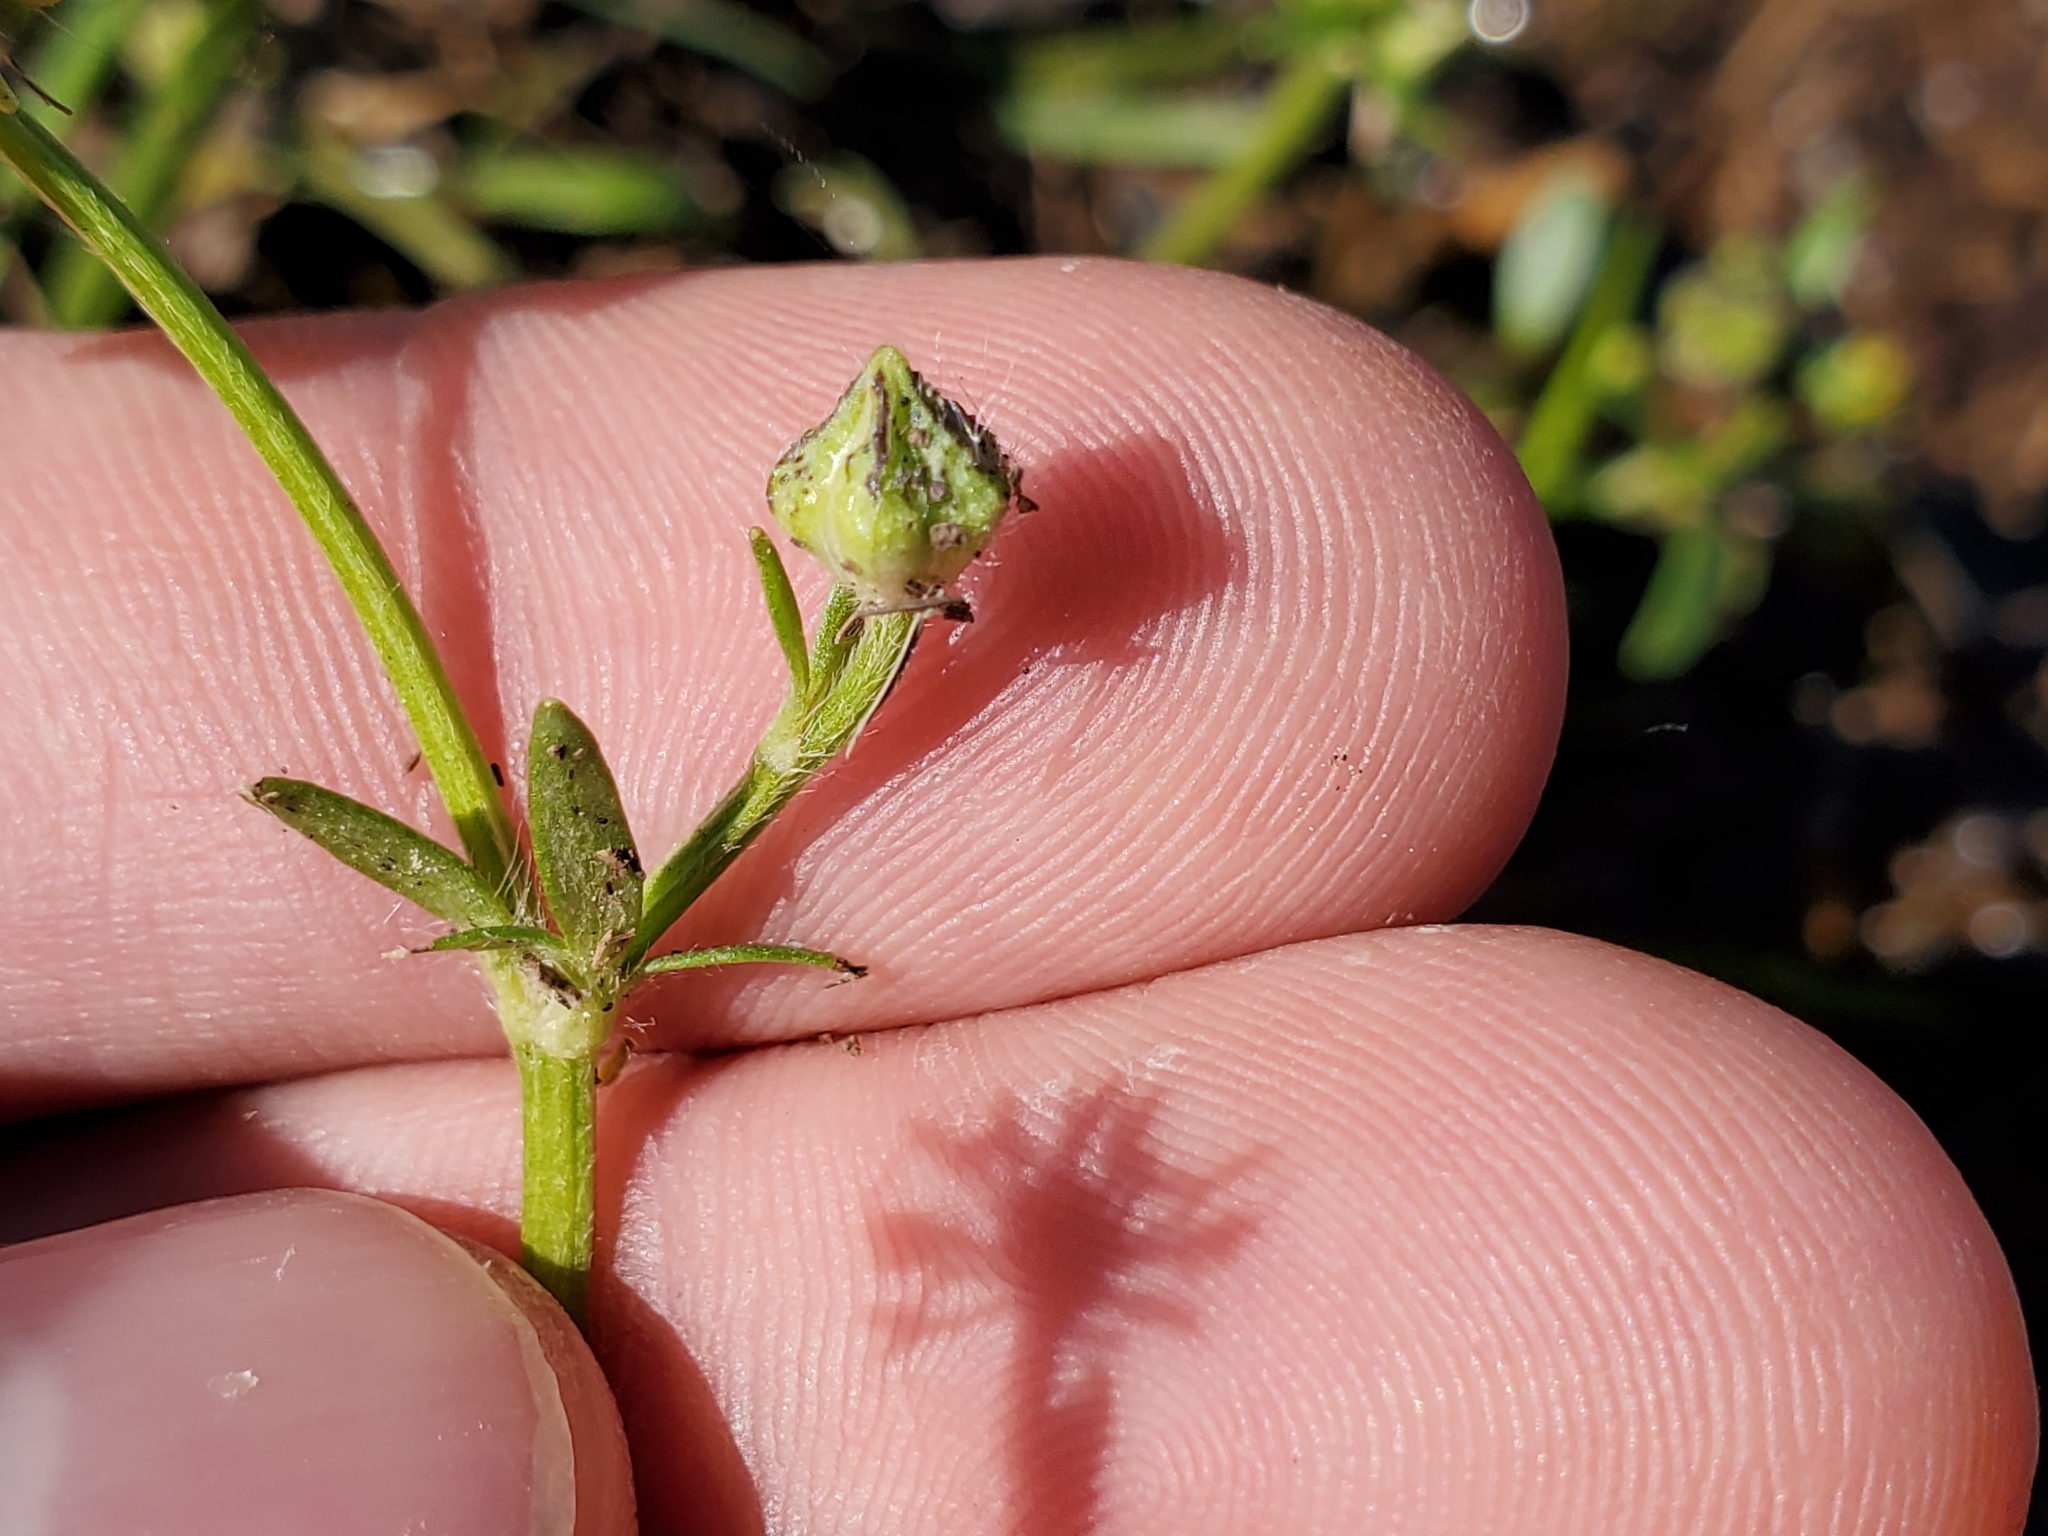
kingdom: Plantae
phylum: Tracheophyta
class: Magnoliopsida
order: Ranunculales
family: Ranunculaceae
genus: Ranunculus
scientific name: Ranunculus fascicularis
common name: Early buttercup
